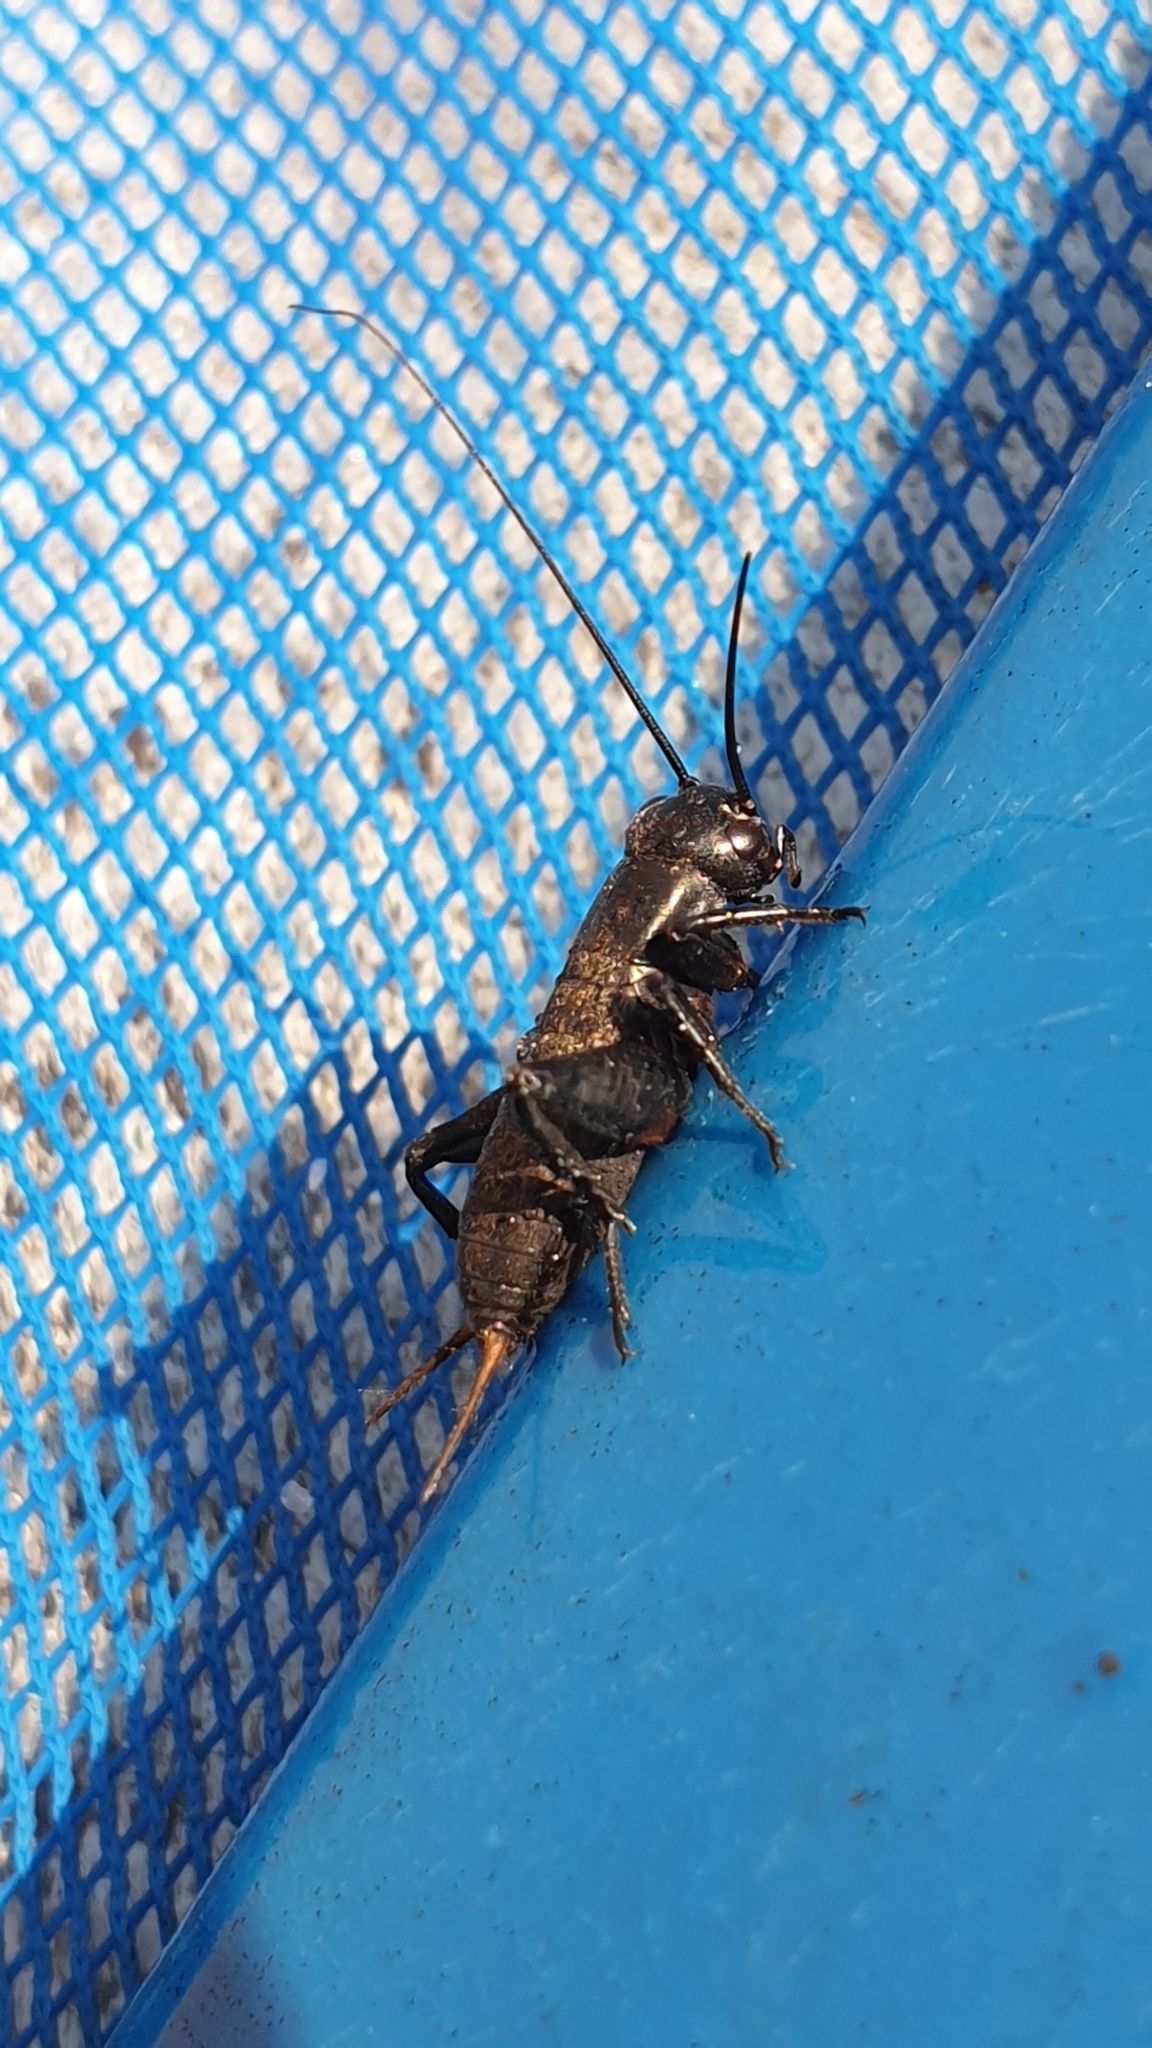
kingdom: Animalia
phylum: Arthropoda
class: Insecta
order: Orthoptera
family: Gryllidae
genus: Gryllus
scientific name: Gryllus bimaculatus
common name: Two-spotted cricket
